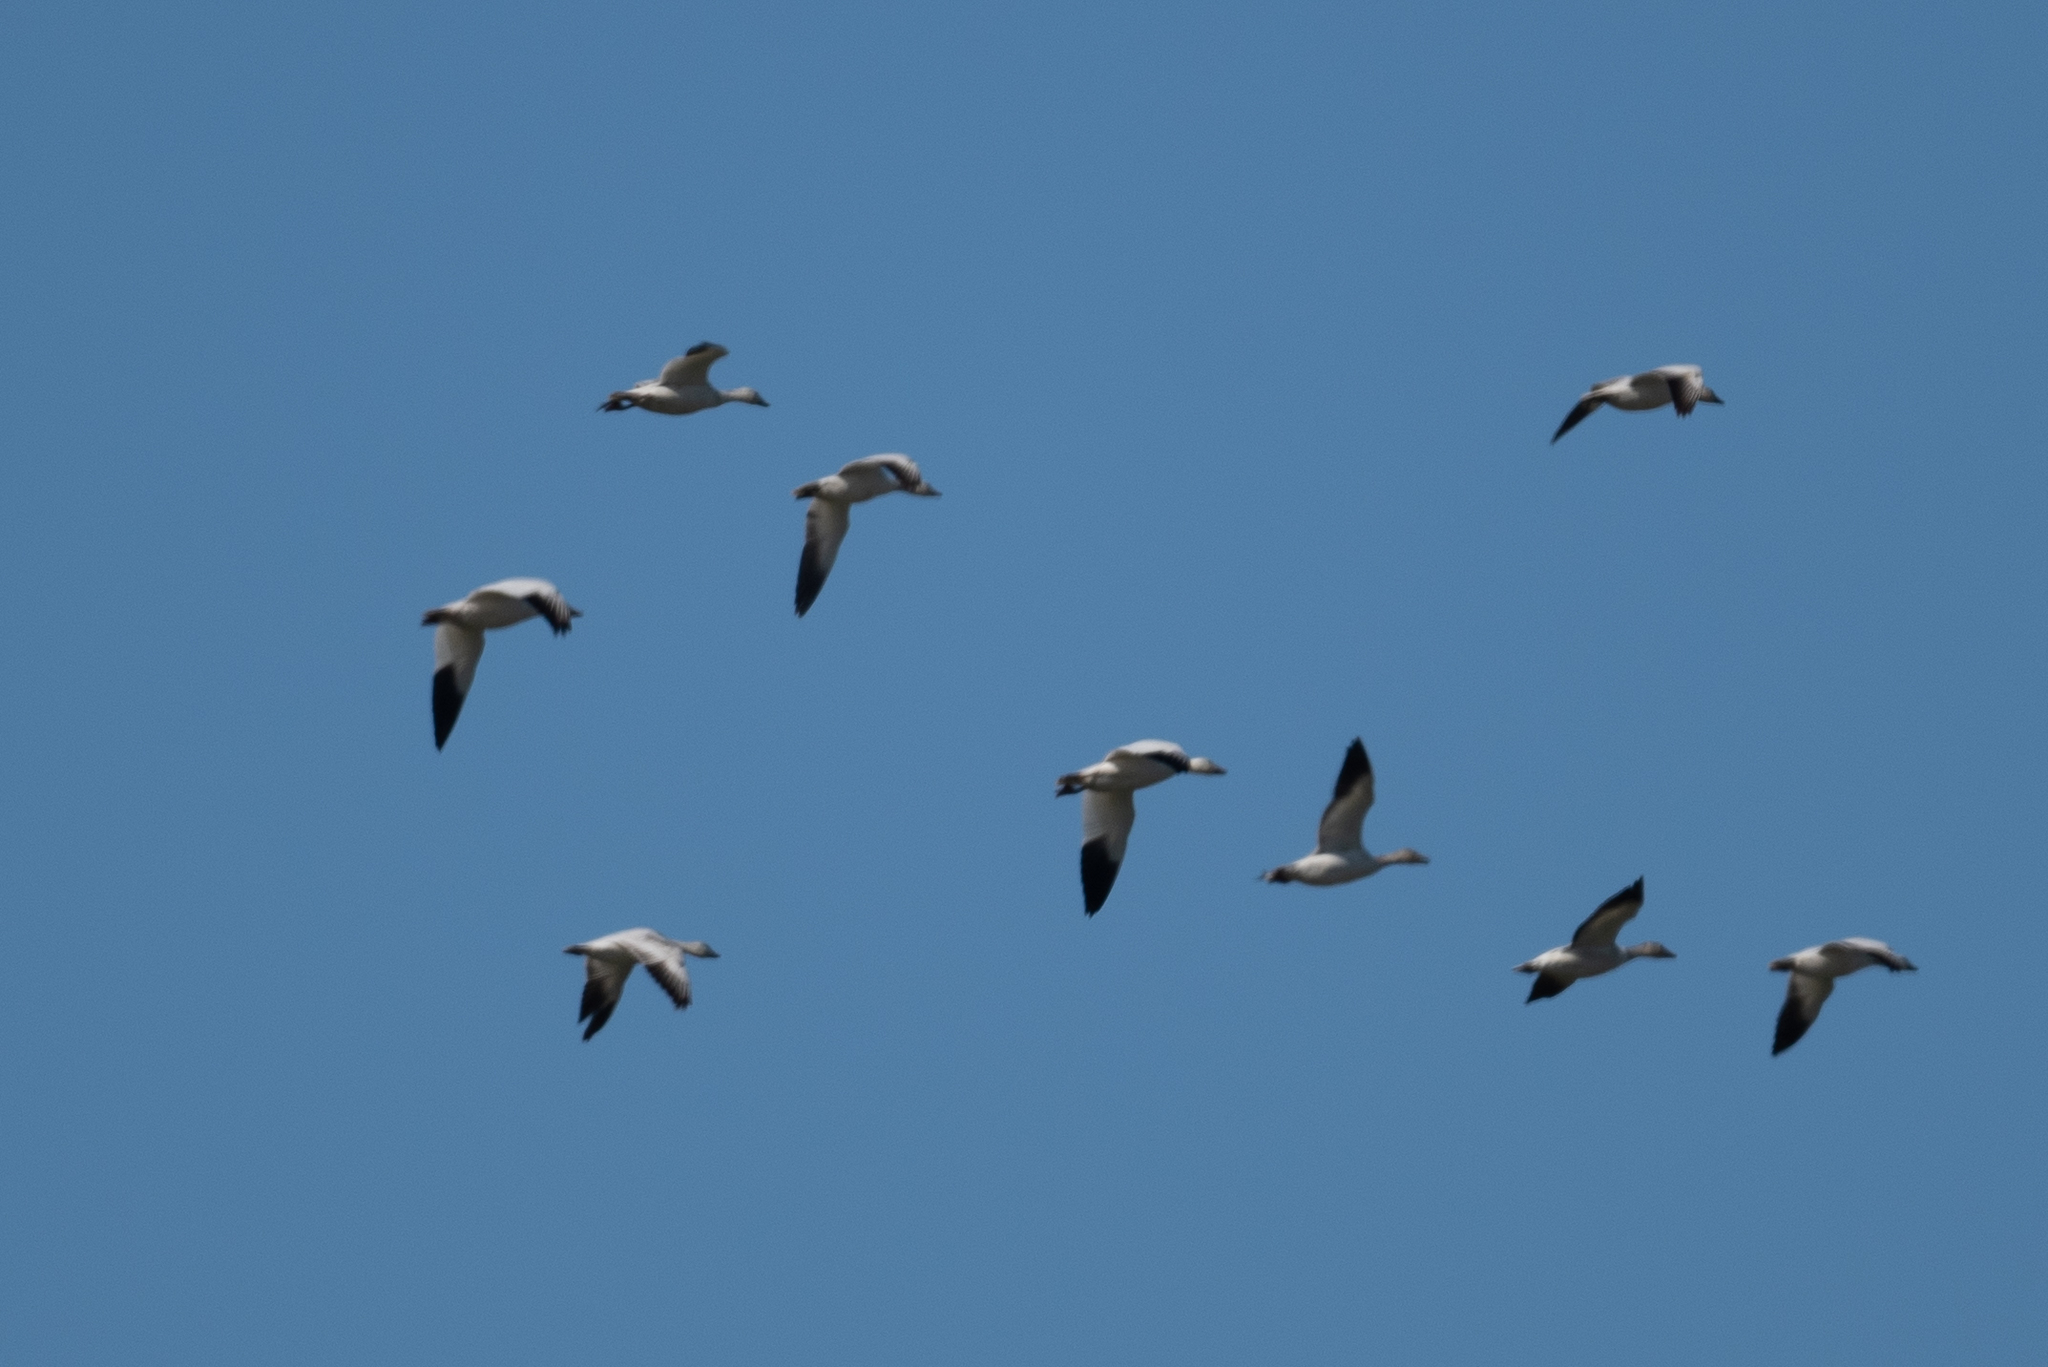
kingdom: Animalia
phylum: Chordata
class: Aves
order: Anseriformes
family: Anatidae
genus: Anser
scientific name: Anser caerulescens
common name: Snow goose
